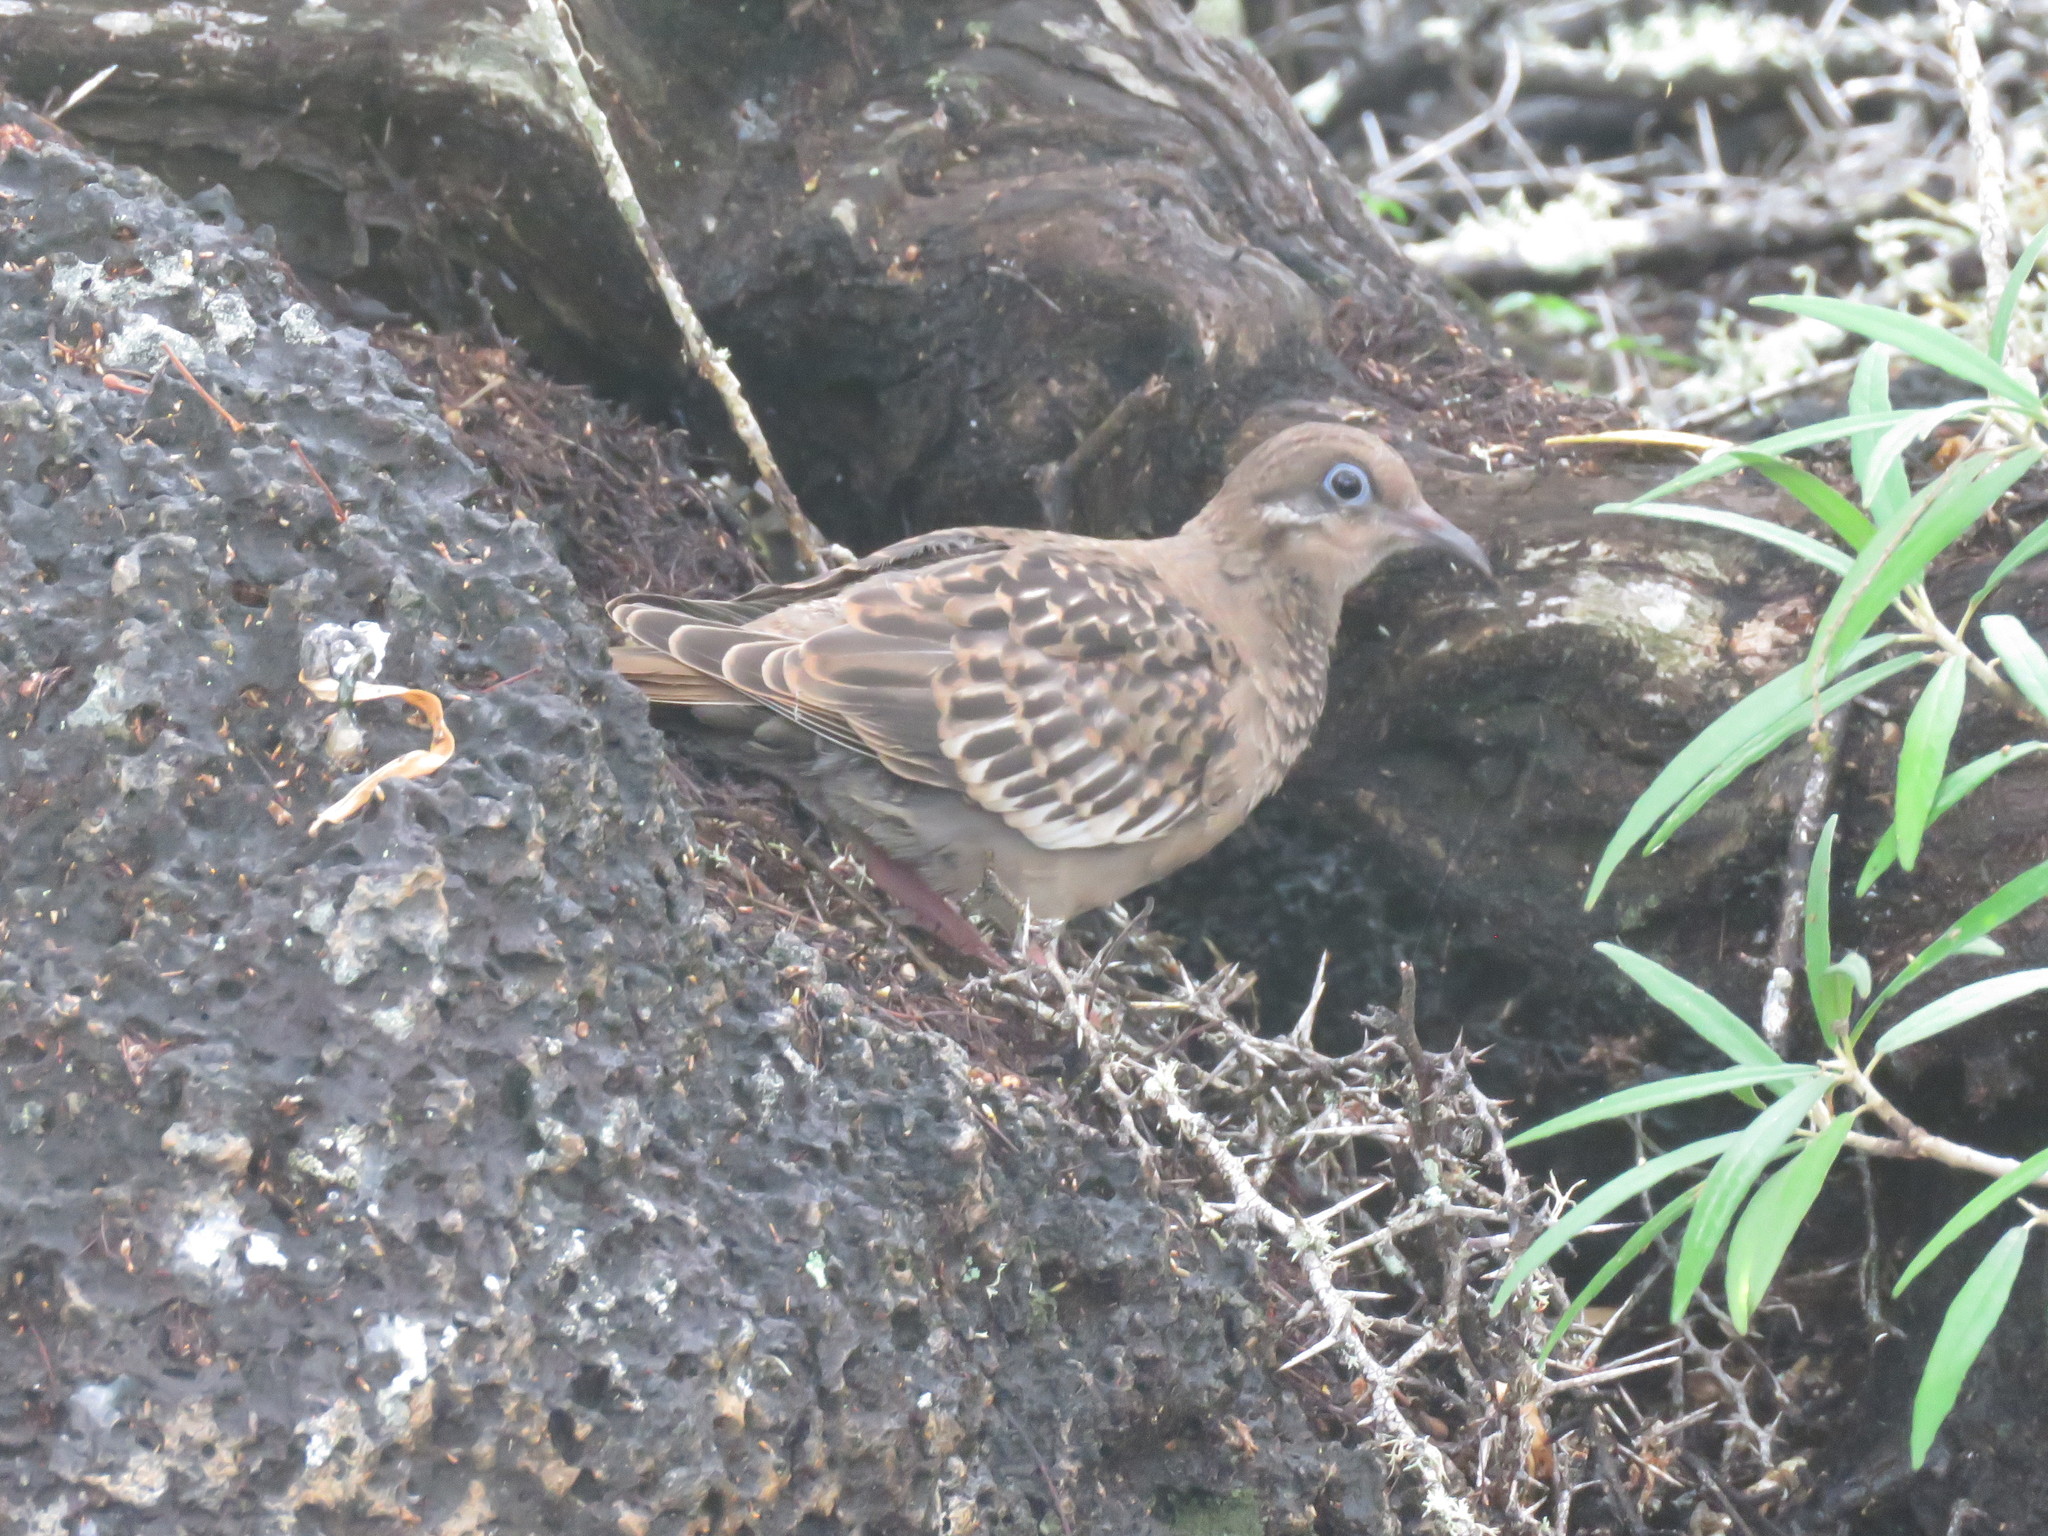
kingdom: Animalia
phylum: Chordata
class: Aves
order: Columbiformes
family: Columbidae
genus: Zenaida
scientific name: Zenaida galapagoensis
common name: Galapagos dove
